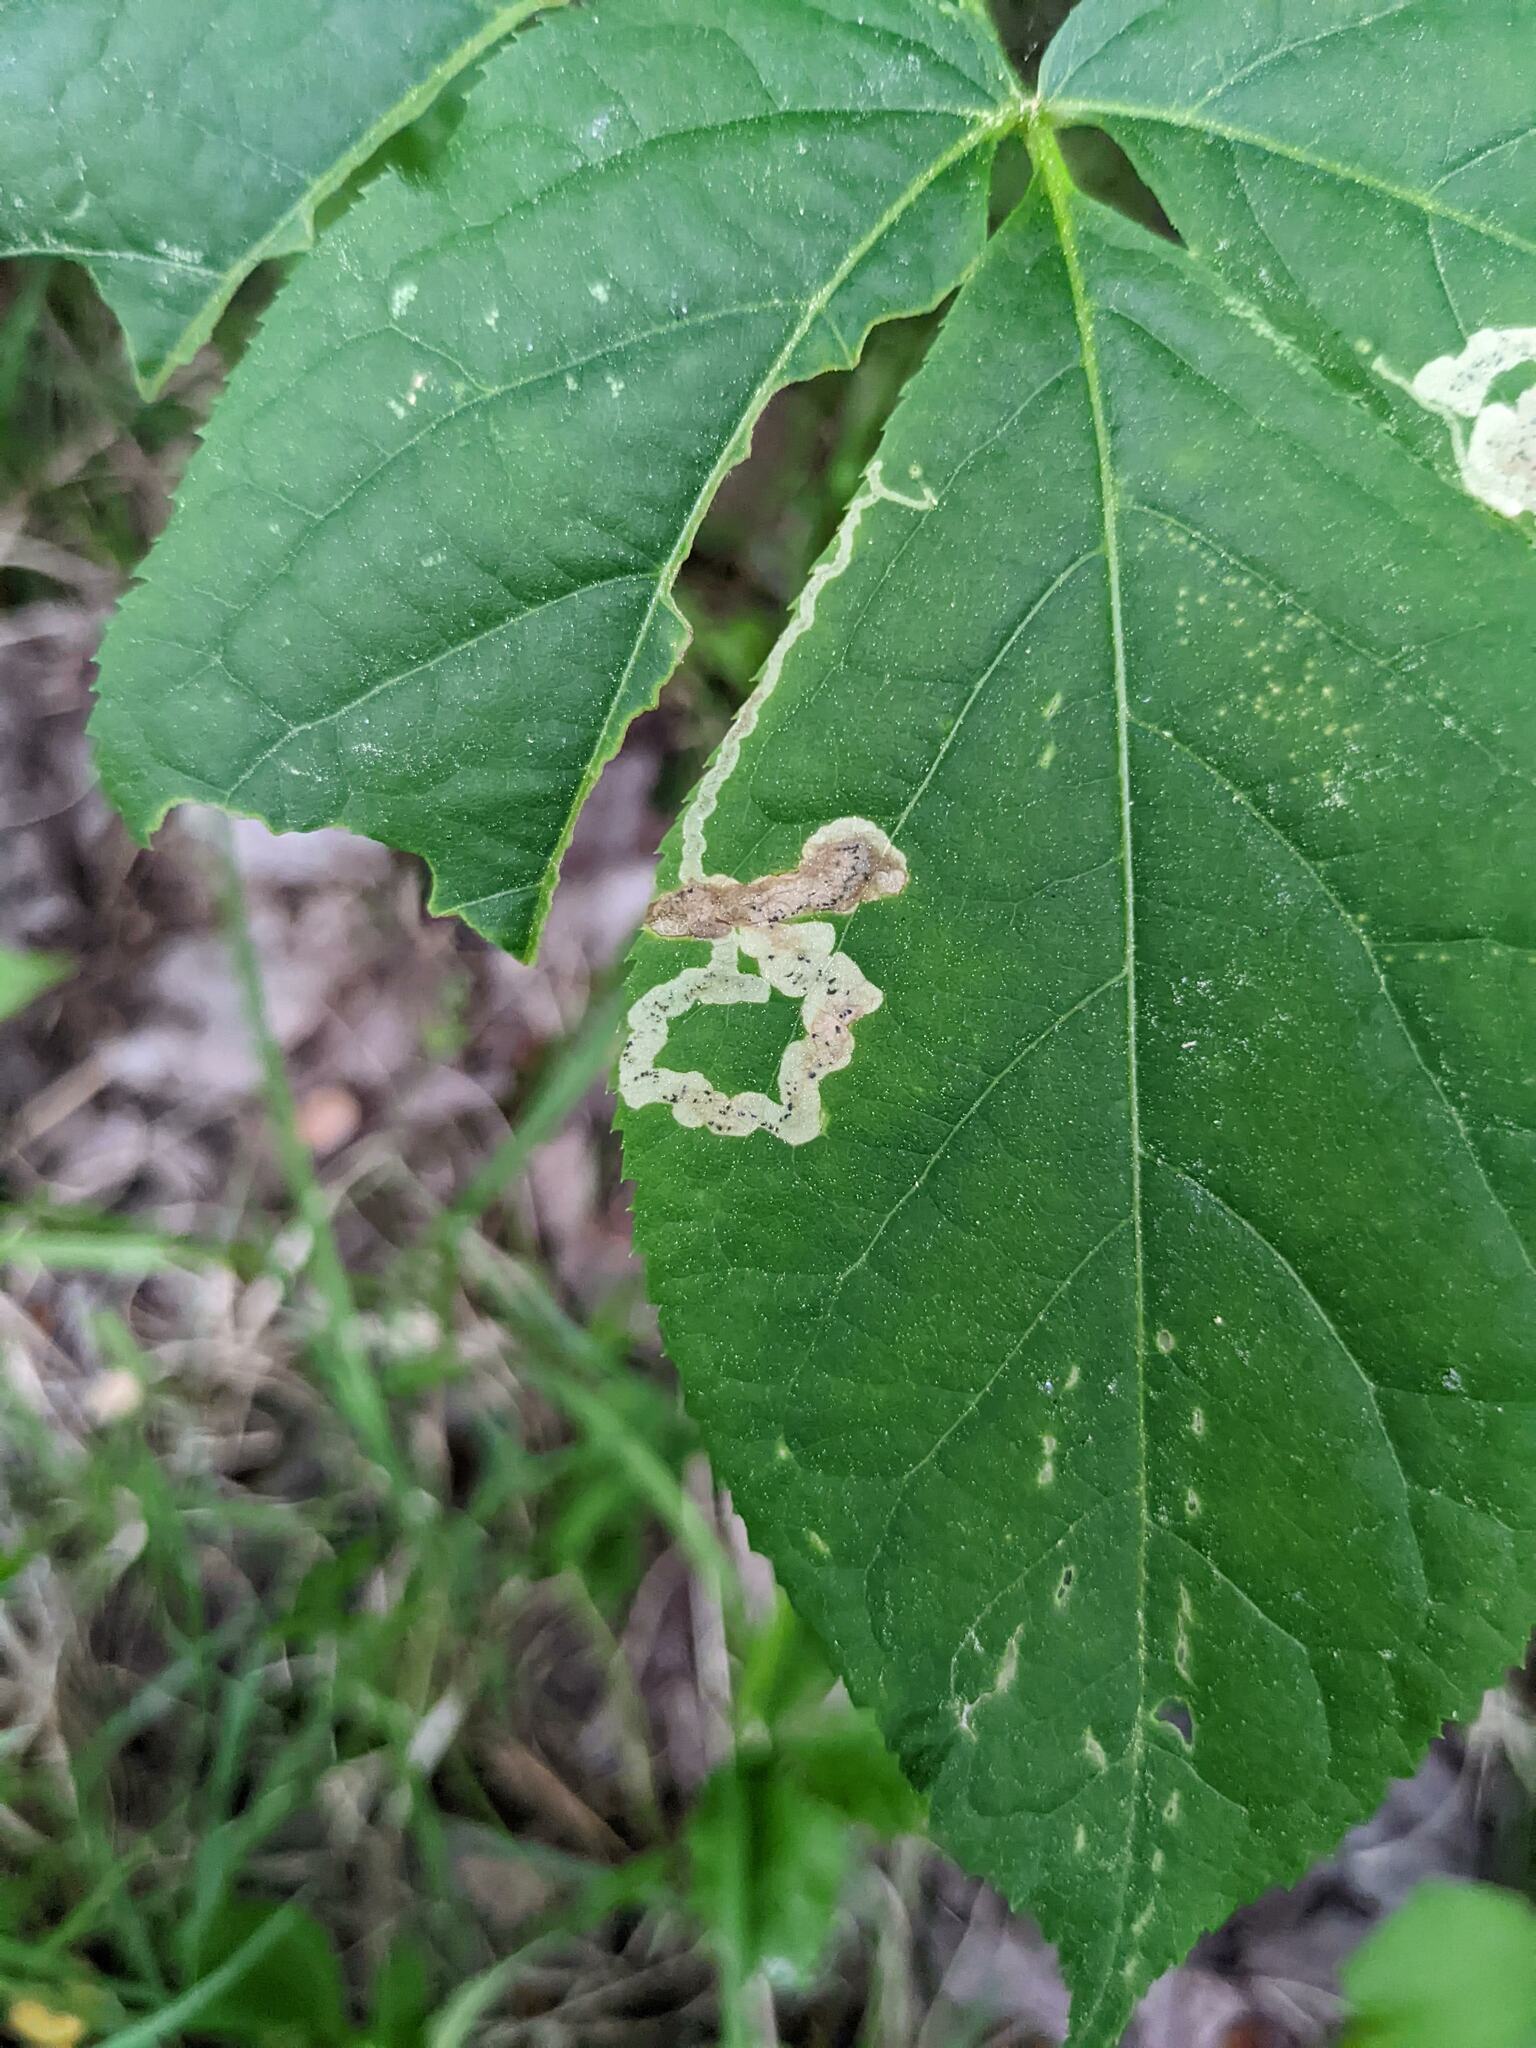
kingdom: Animalia
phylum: Arthropoda
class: Insecta
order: Diptera
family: Agromyzidae
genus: Phytomyza
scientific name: Phytomyza aralivora
